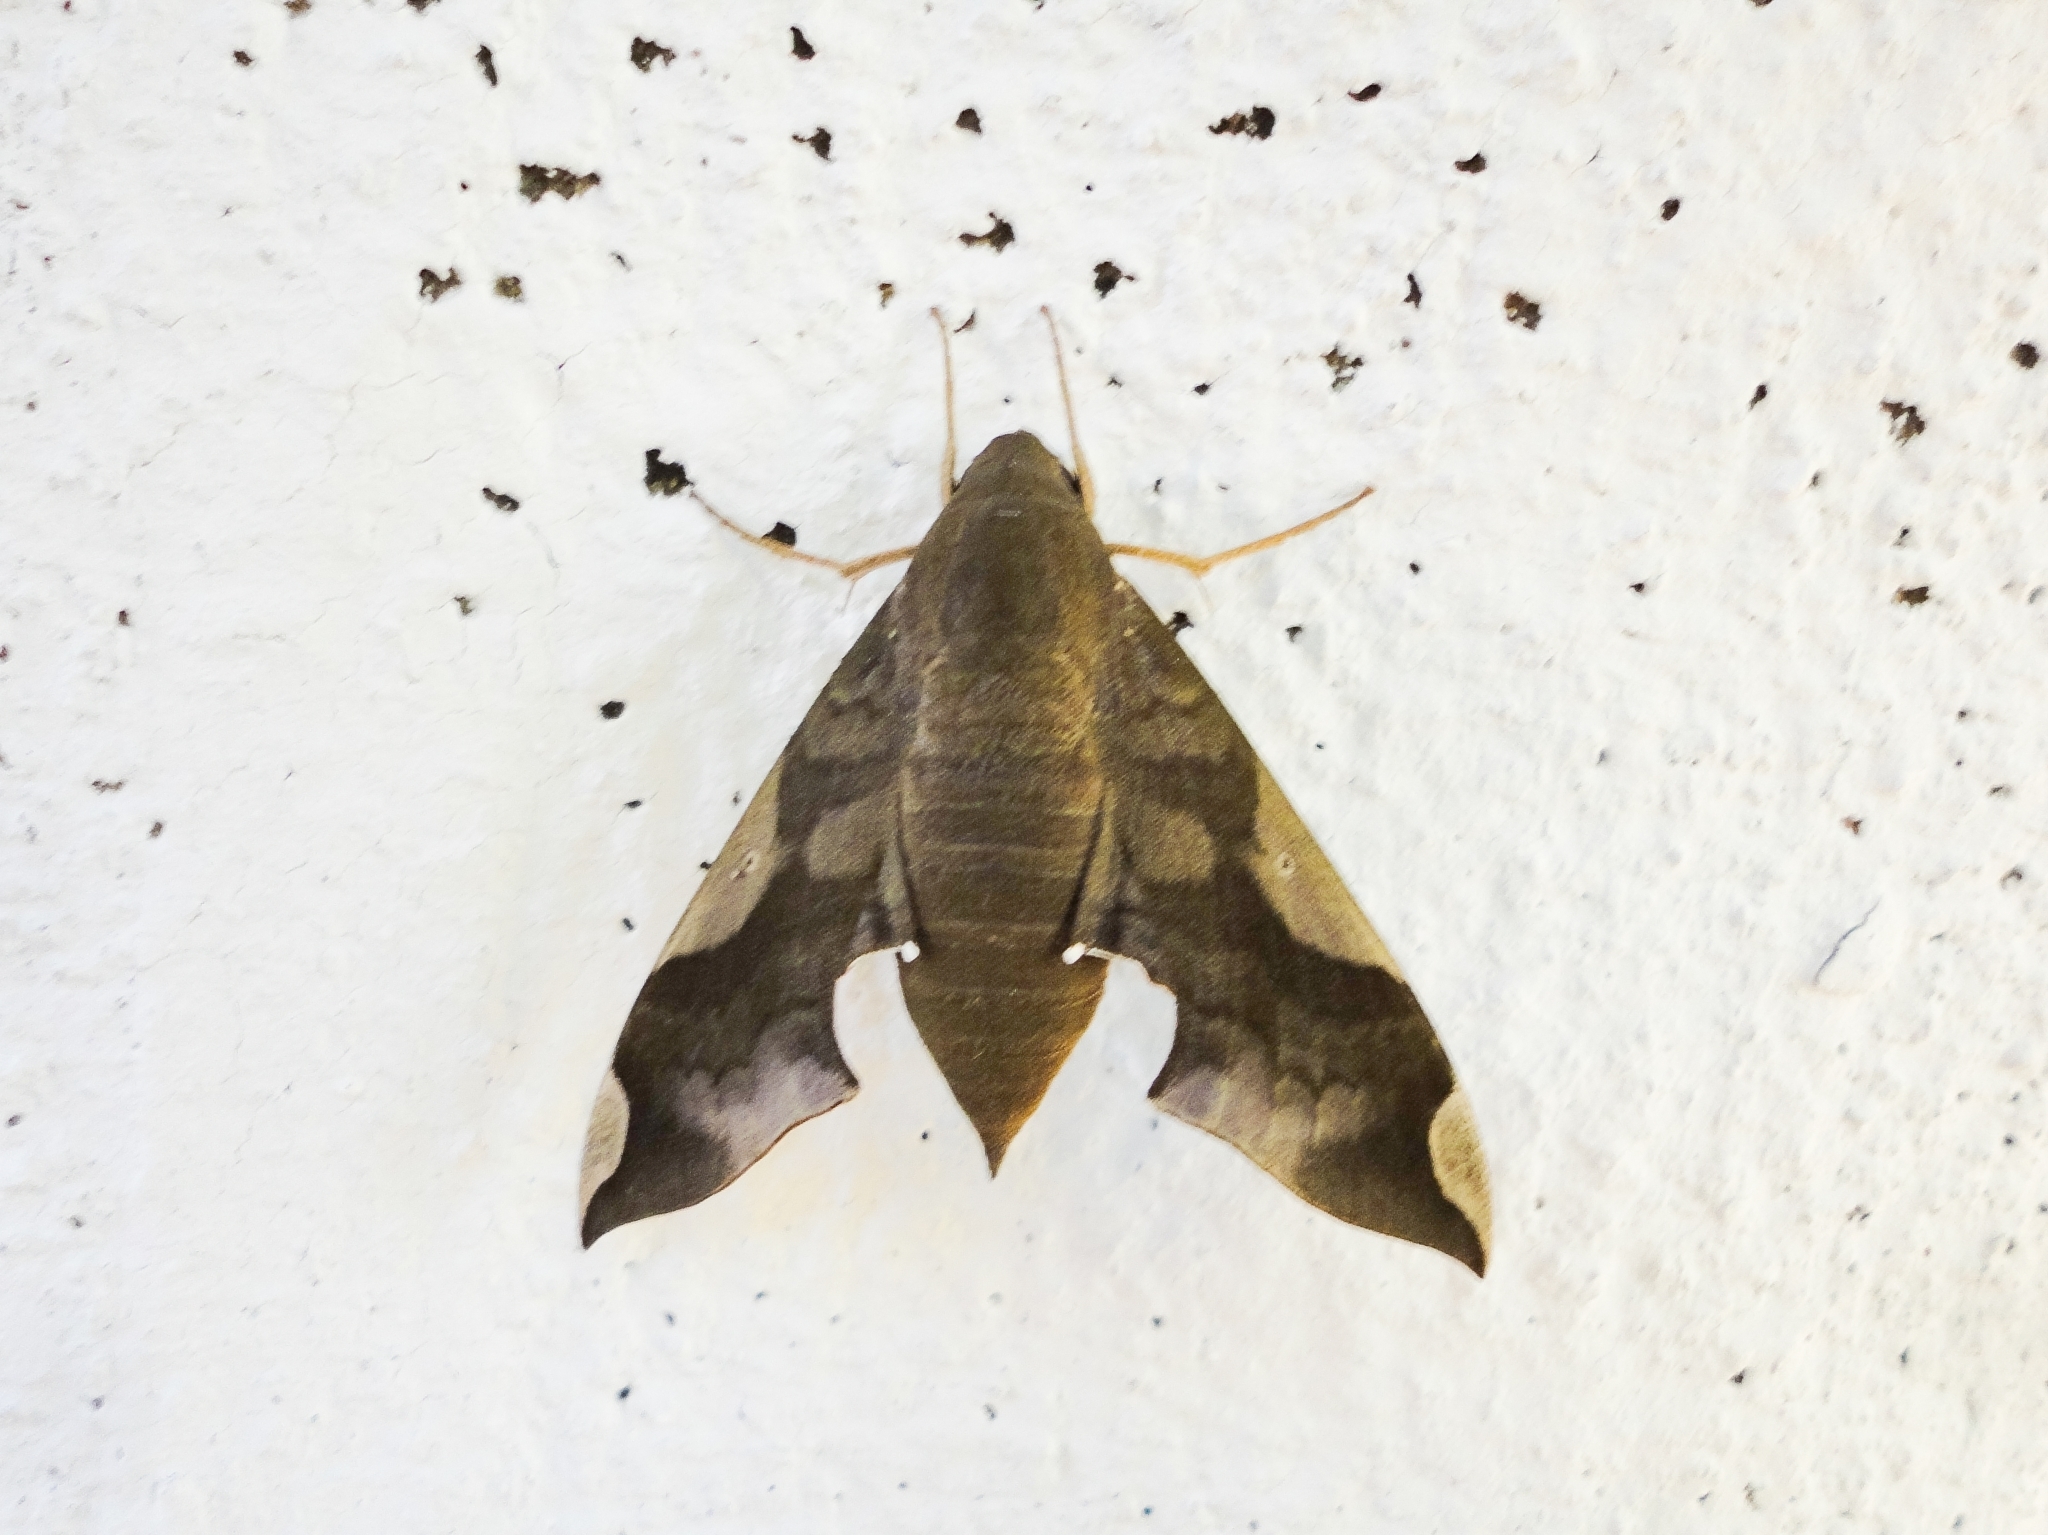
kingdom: Animalia
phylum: Arthropoda
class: Insecta
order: Lepidoptera
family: Sphingidae
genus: Pachylia
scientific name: Pachylia syces
